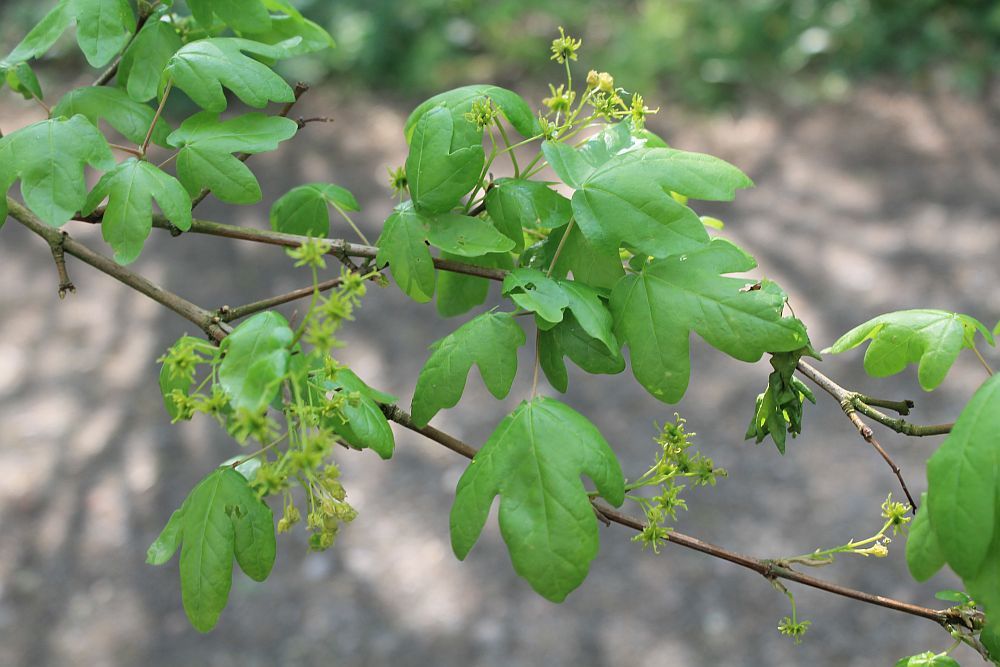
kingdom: Plantae
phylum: Tracheophyta
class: Magnoliopsida
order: Sapindales
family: Sapindaceae
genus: Acer
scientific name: Acer campestre
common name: Field maple
